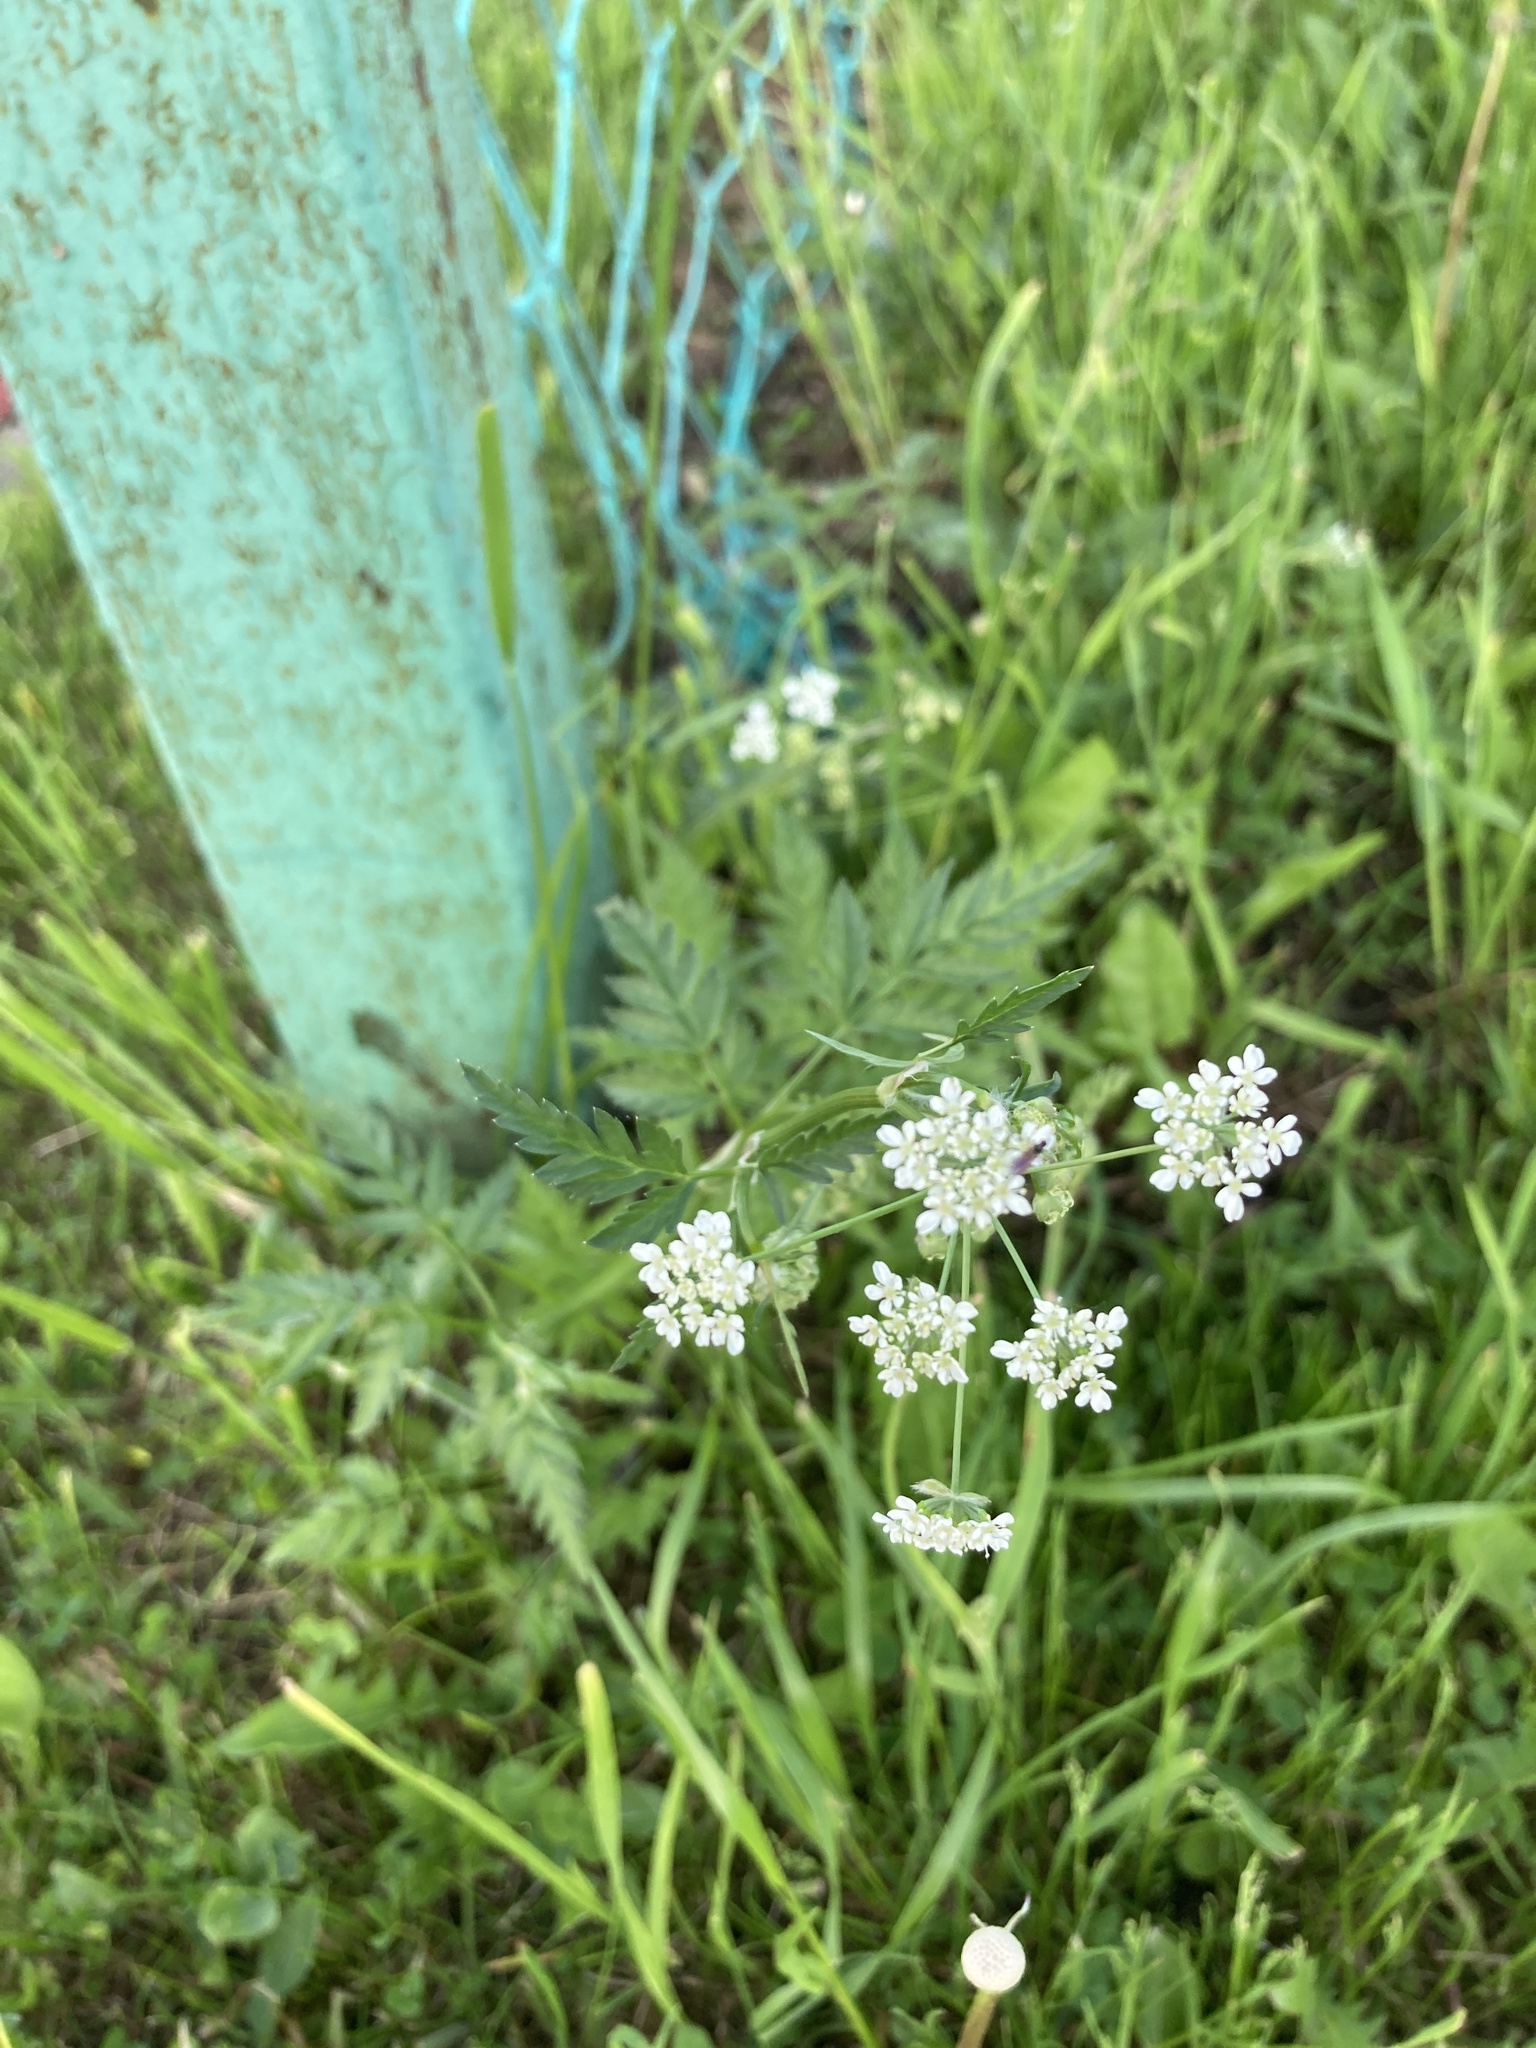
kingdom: Plantae
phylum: Tracheophyta
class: Magnoliopsida
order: Apiales
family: Apiaceae
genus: Anthriscus
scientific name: Anthriscus sylvestris
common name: Cow parsley
